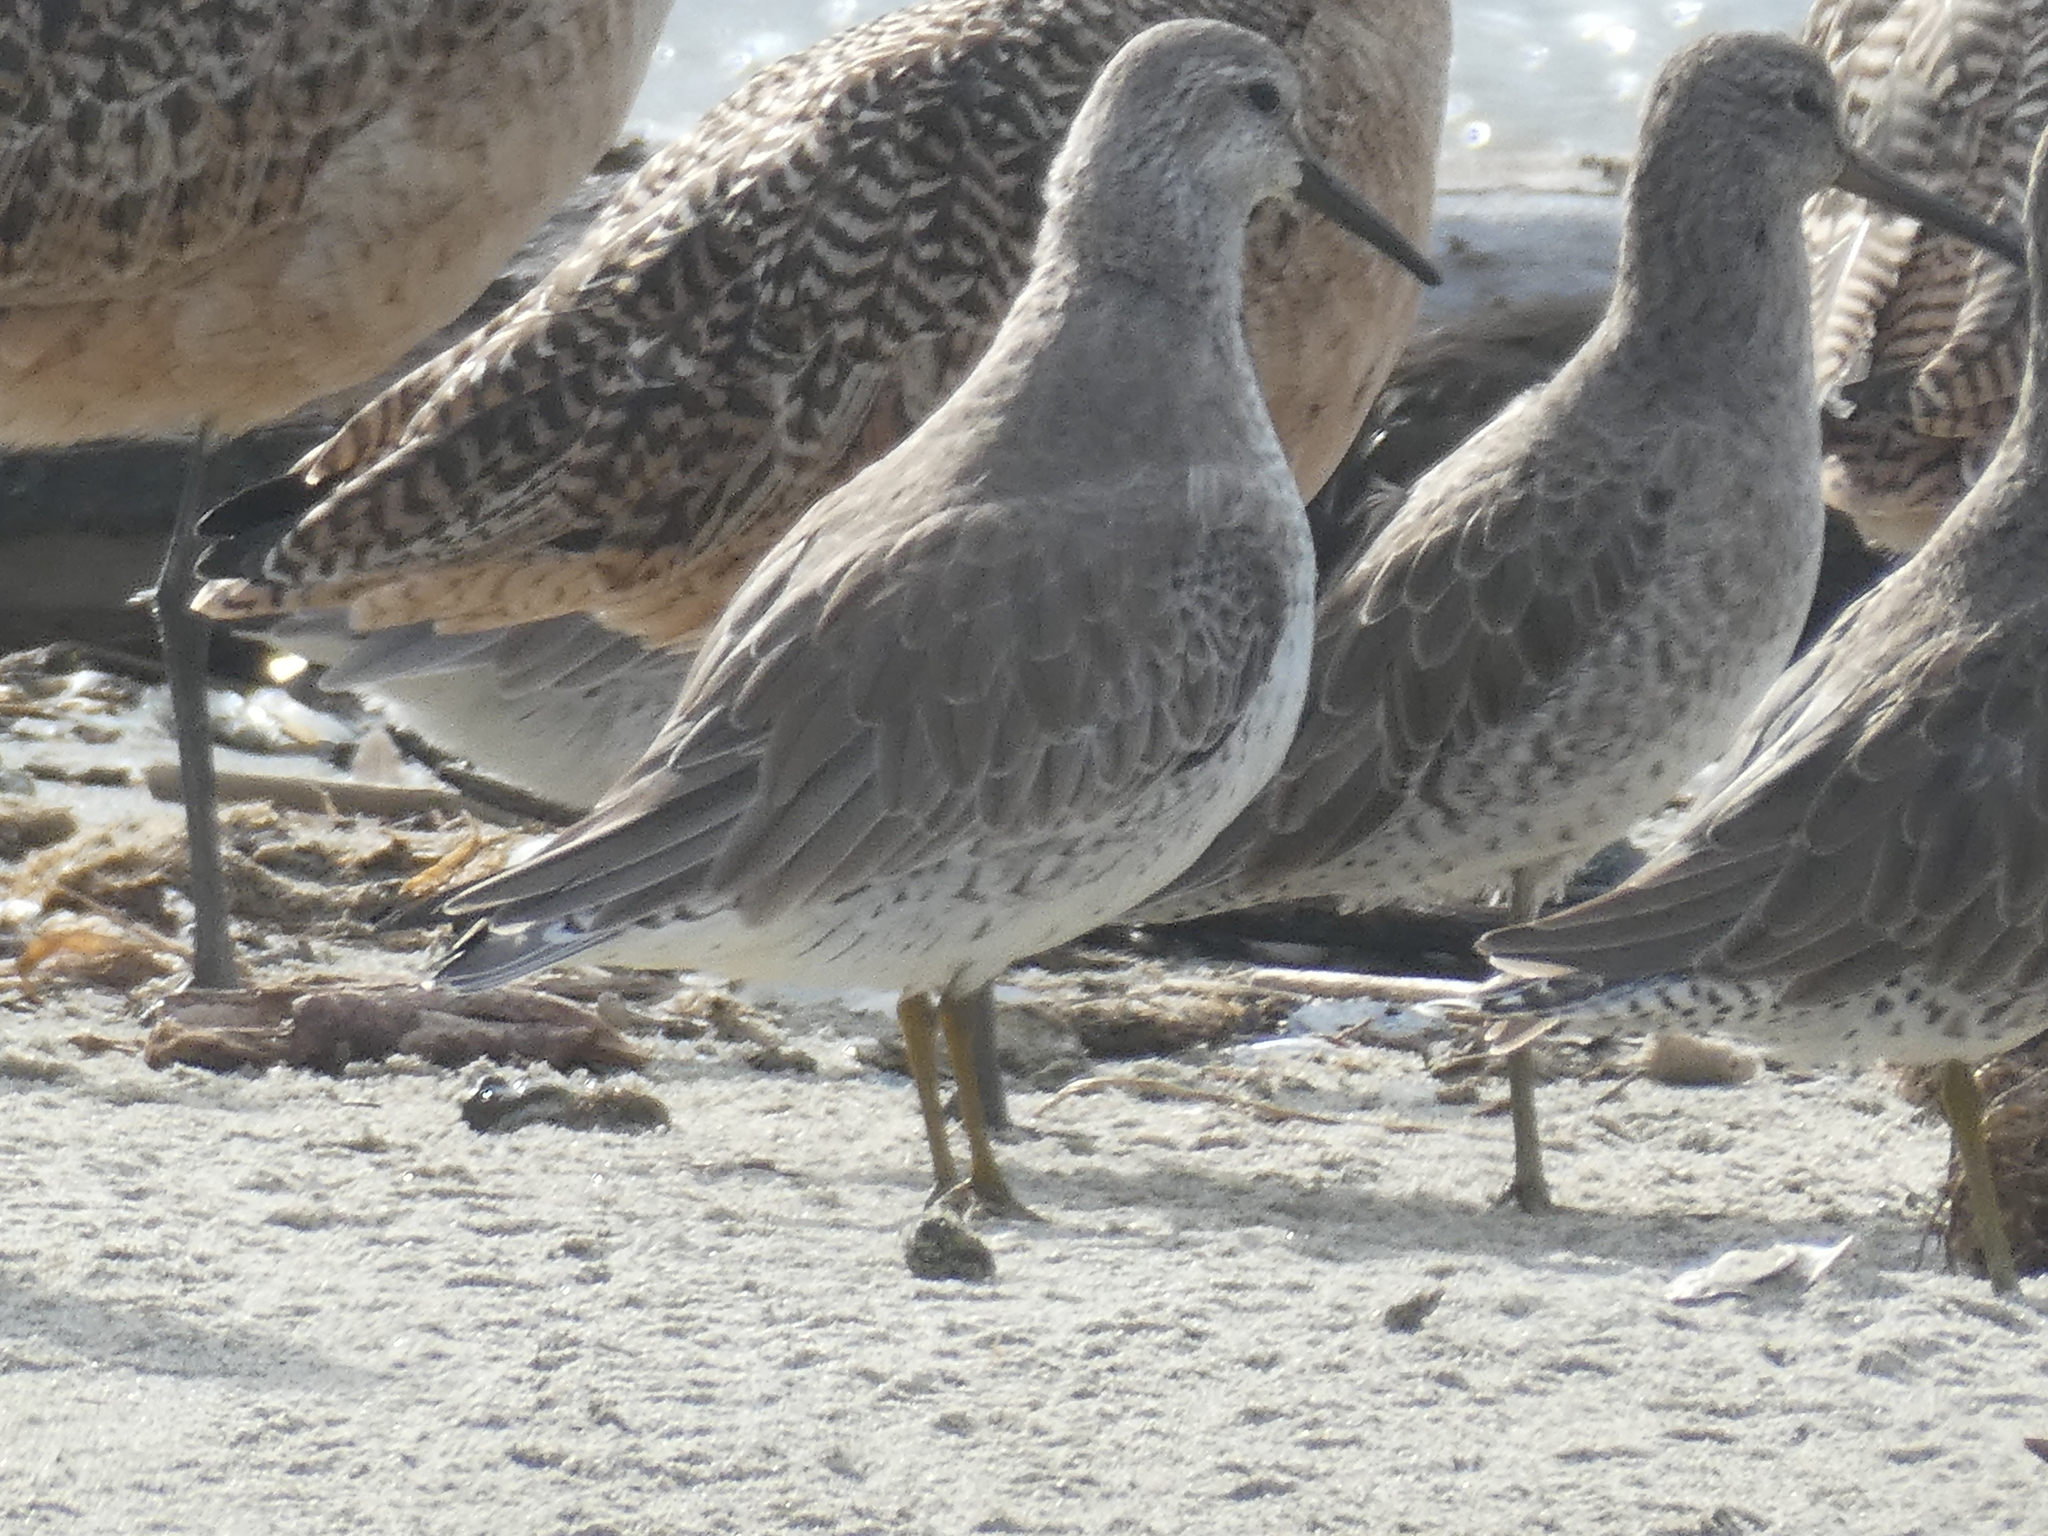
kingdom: Animalia
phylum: Chordata
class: Aves
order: Charadriiformes
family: Scolopacidae
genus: Calidris
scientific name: Calidris canutus
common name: Red knot
